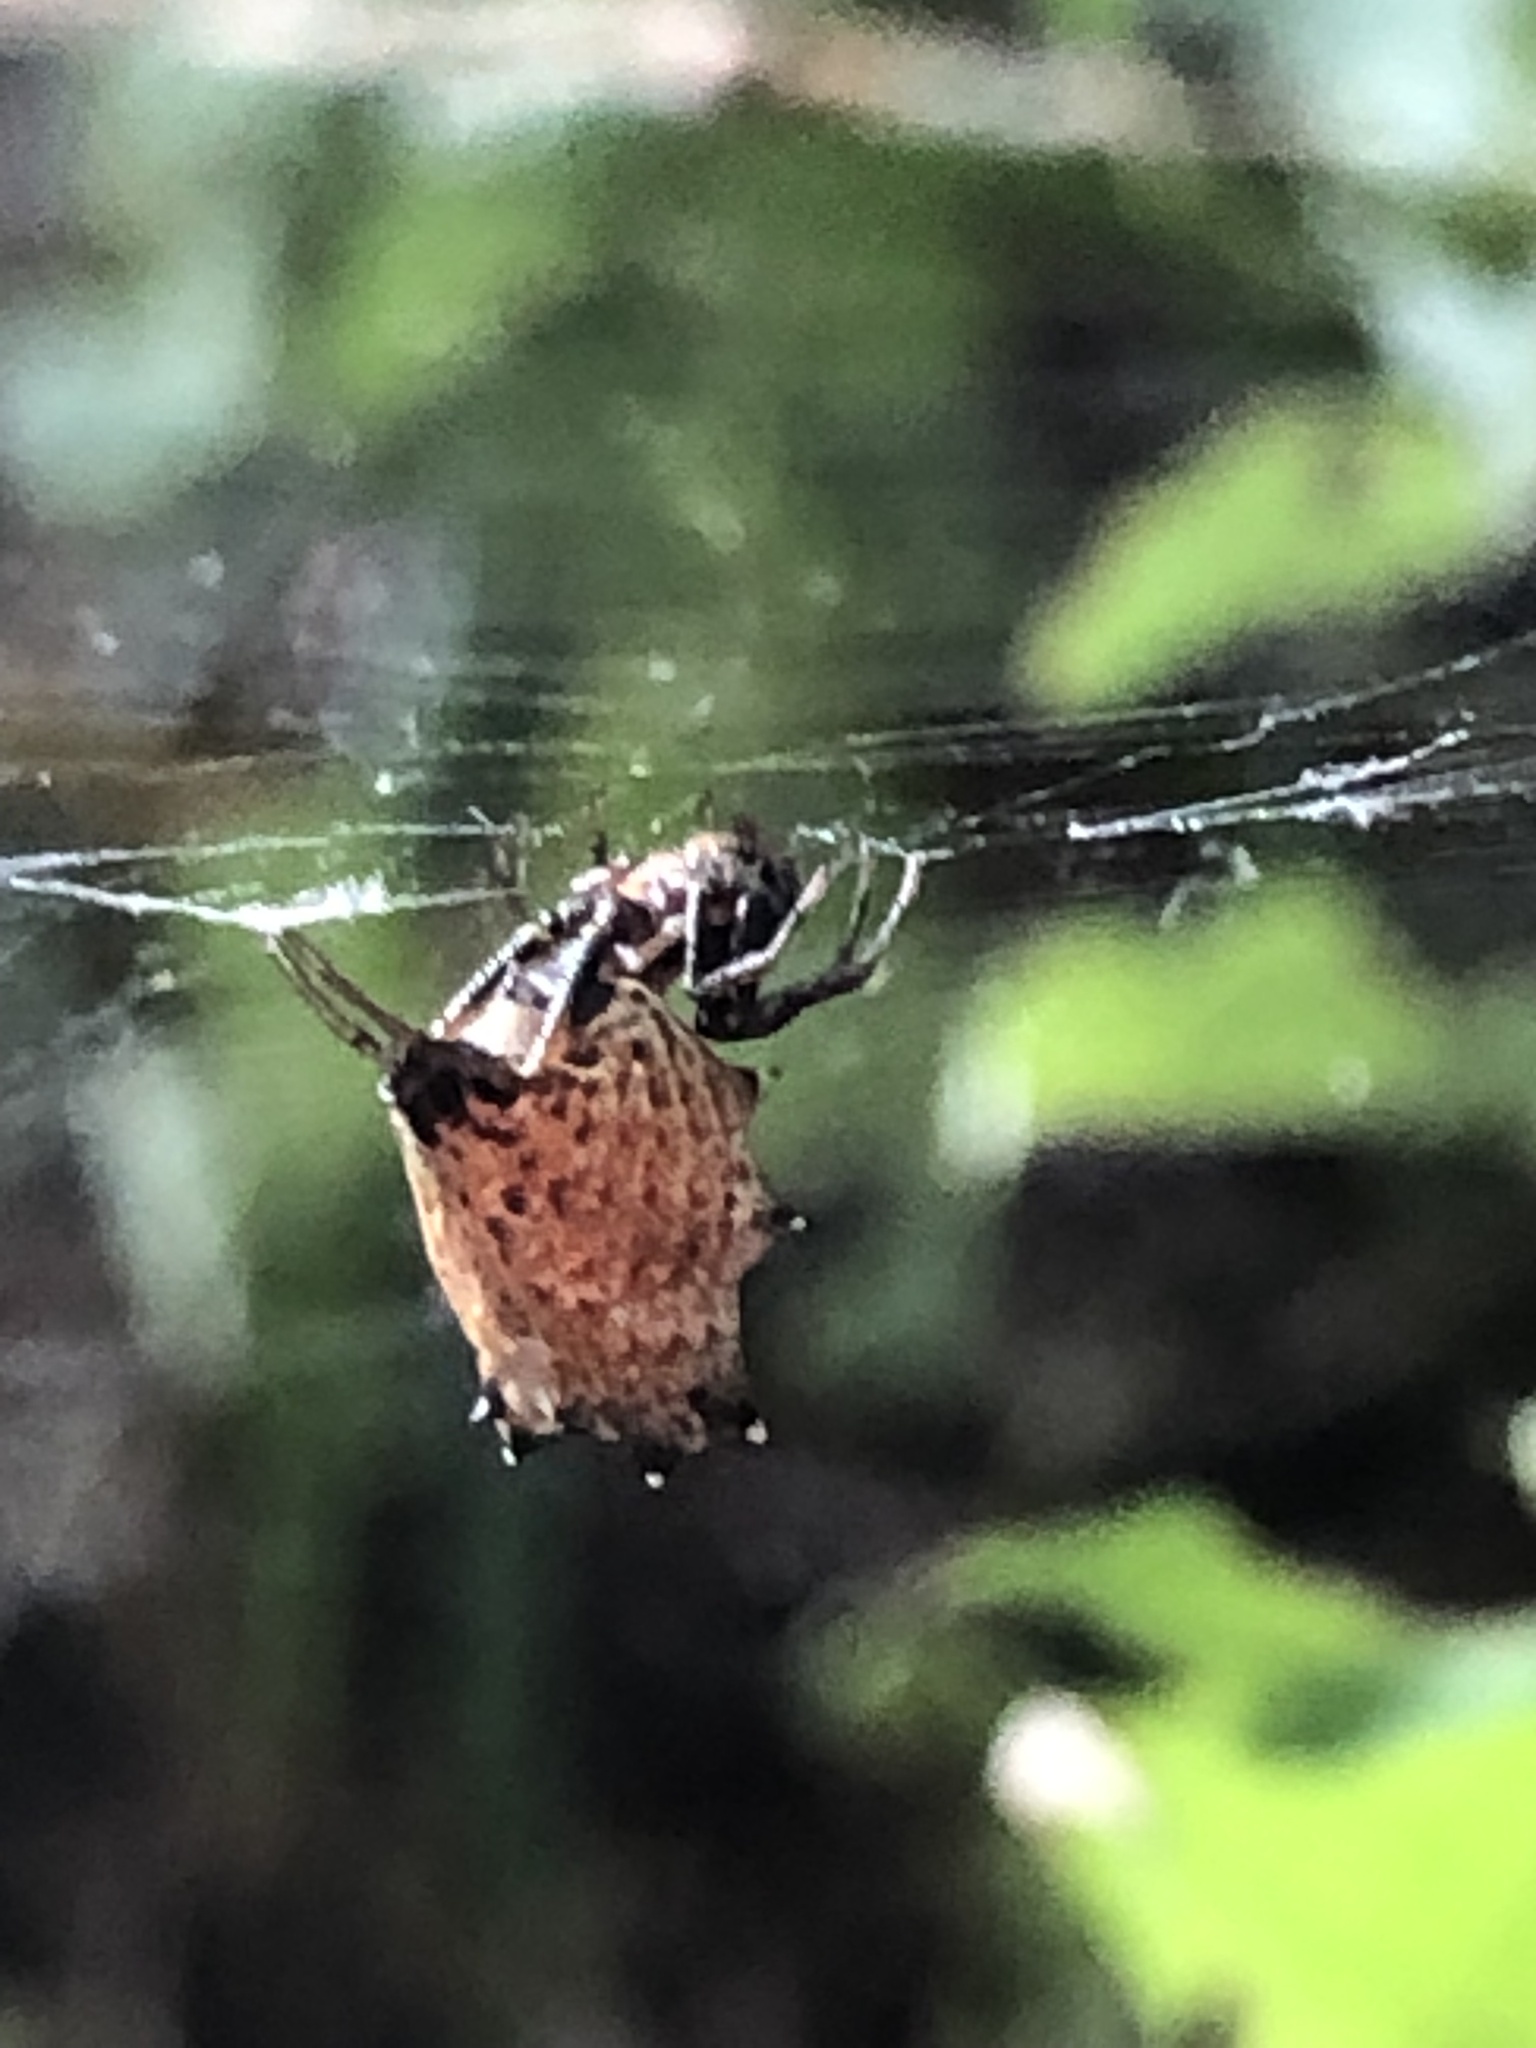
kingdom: Animalia
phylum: Arthropoda
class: Arachnida
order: Araneae
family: Araneidae
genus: Micrathena
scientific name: Micrathena gracilis
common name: Orb weavers
